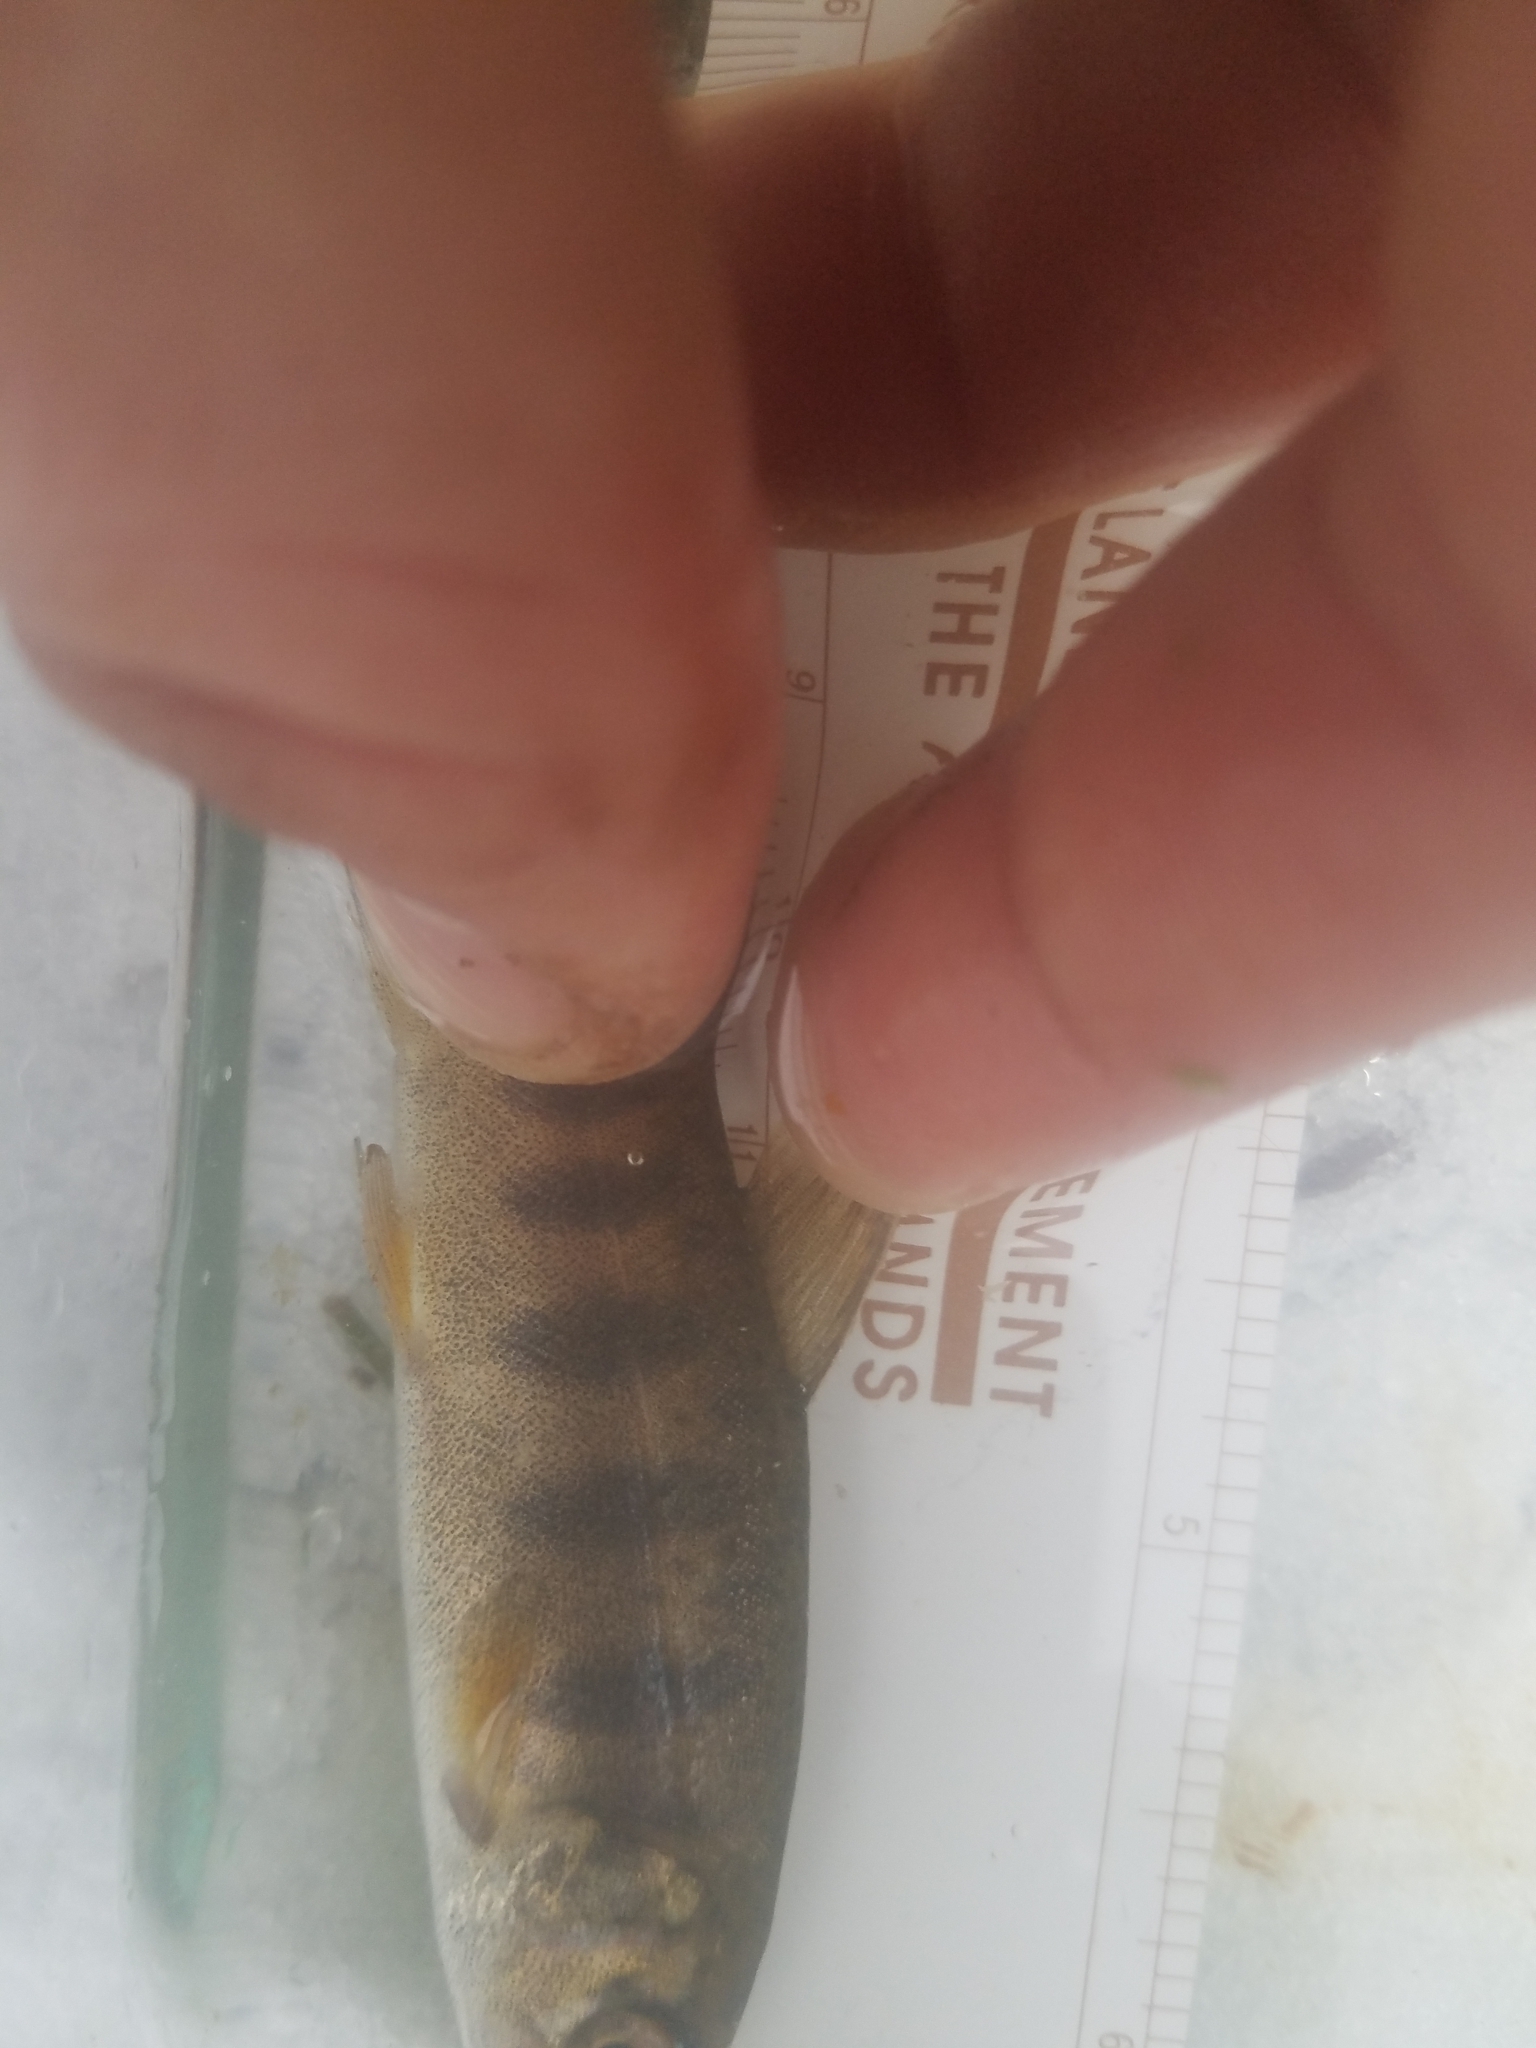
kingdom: Animalia
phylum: Chordata
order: Salmoniformes
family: Salmonidae
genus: Oncorhynchus
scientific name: Oncorhynchus kisutch
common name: Coho salmon
